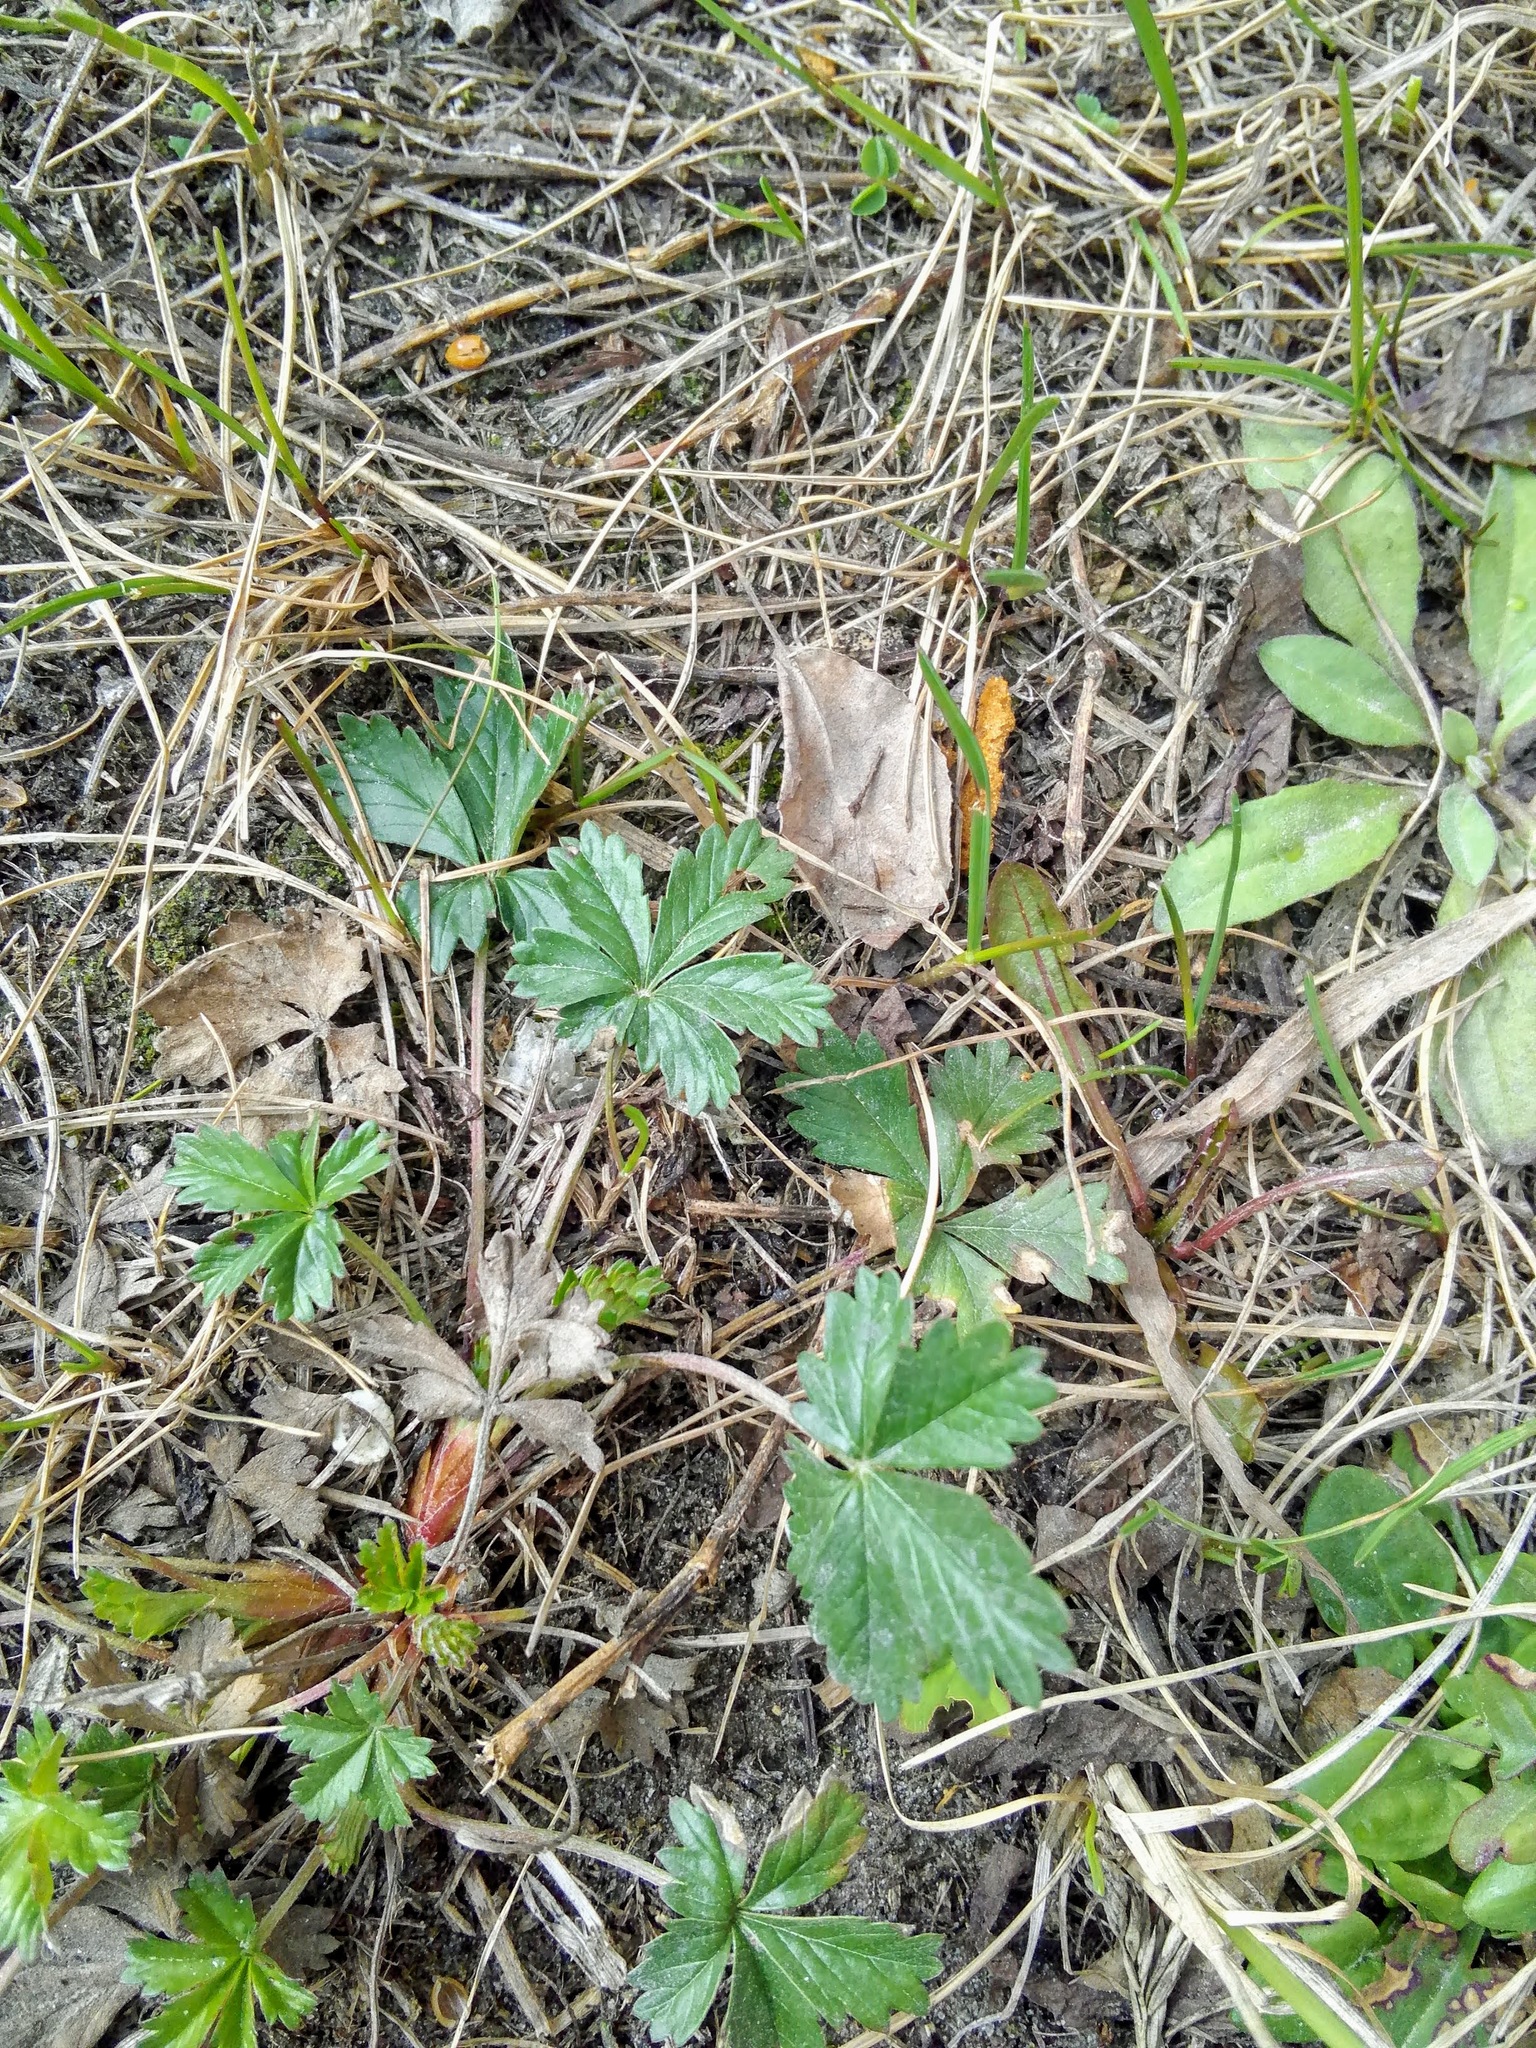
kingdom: Plantae
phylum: Tracheophyta
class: Magnoliopsida
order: Rosales
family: Rosaceae
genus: Potentilla
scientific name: Potentilla argentea
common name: Hoary cinquefoil
